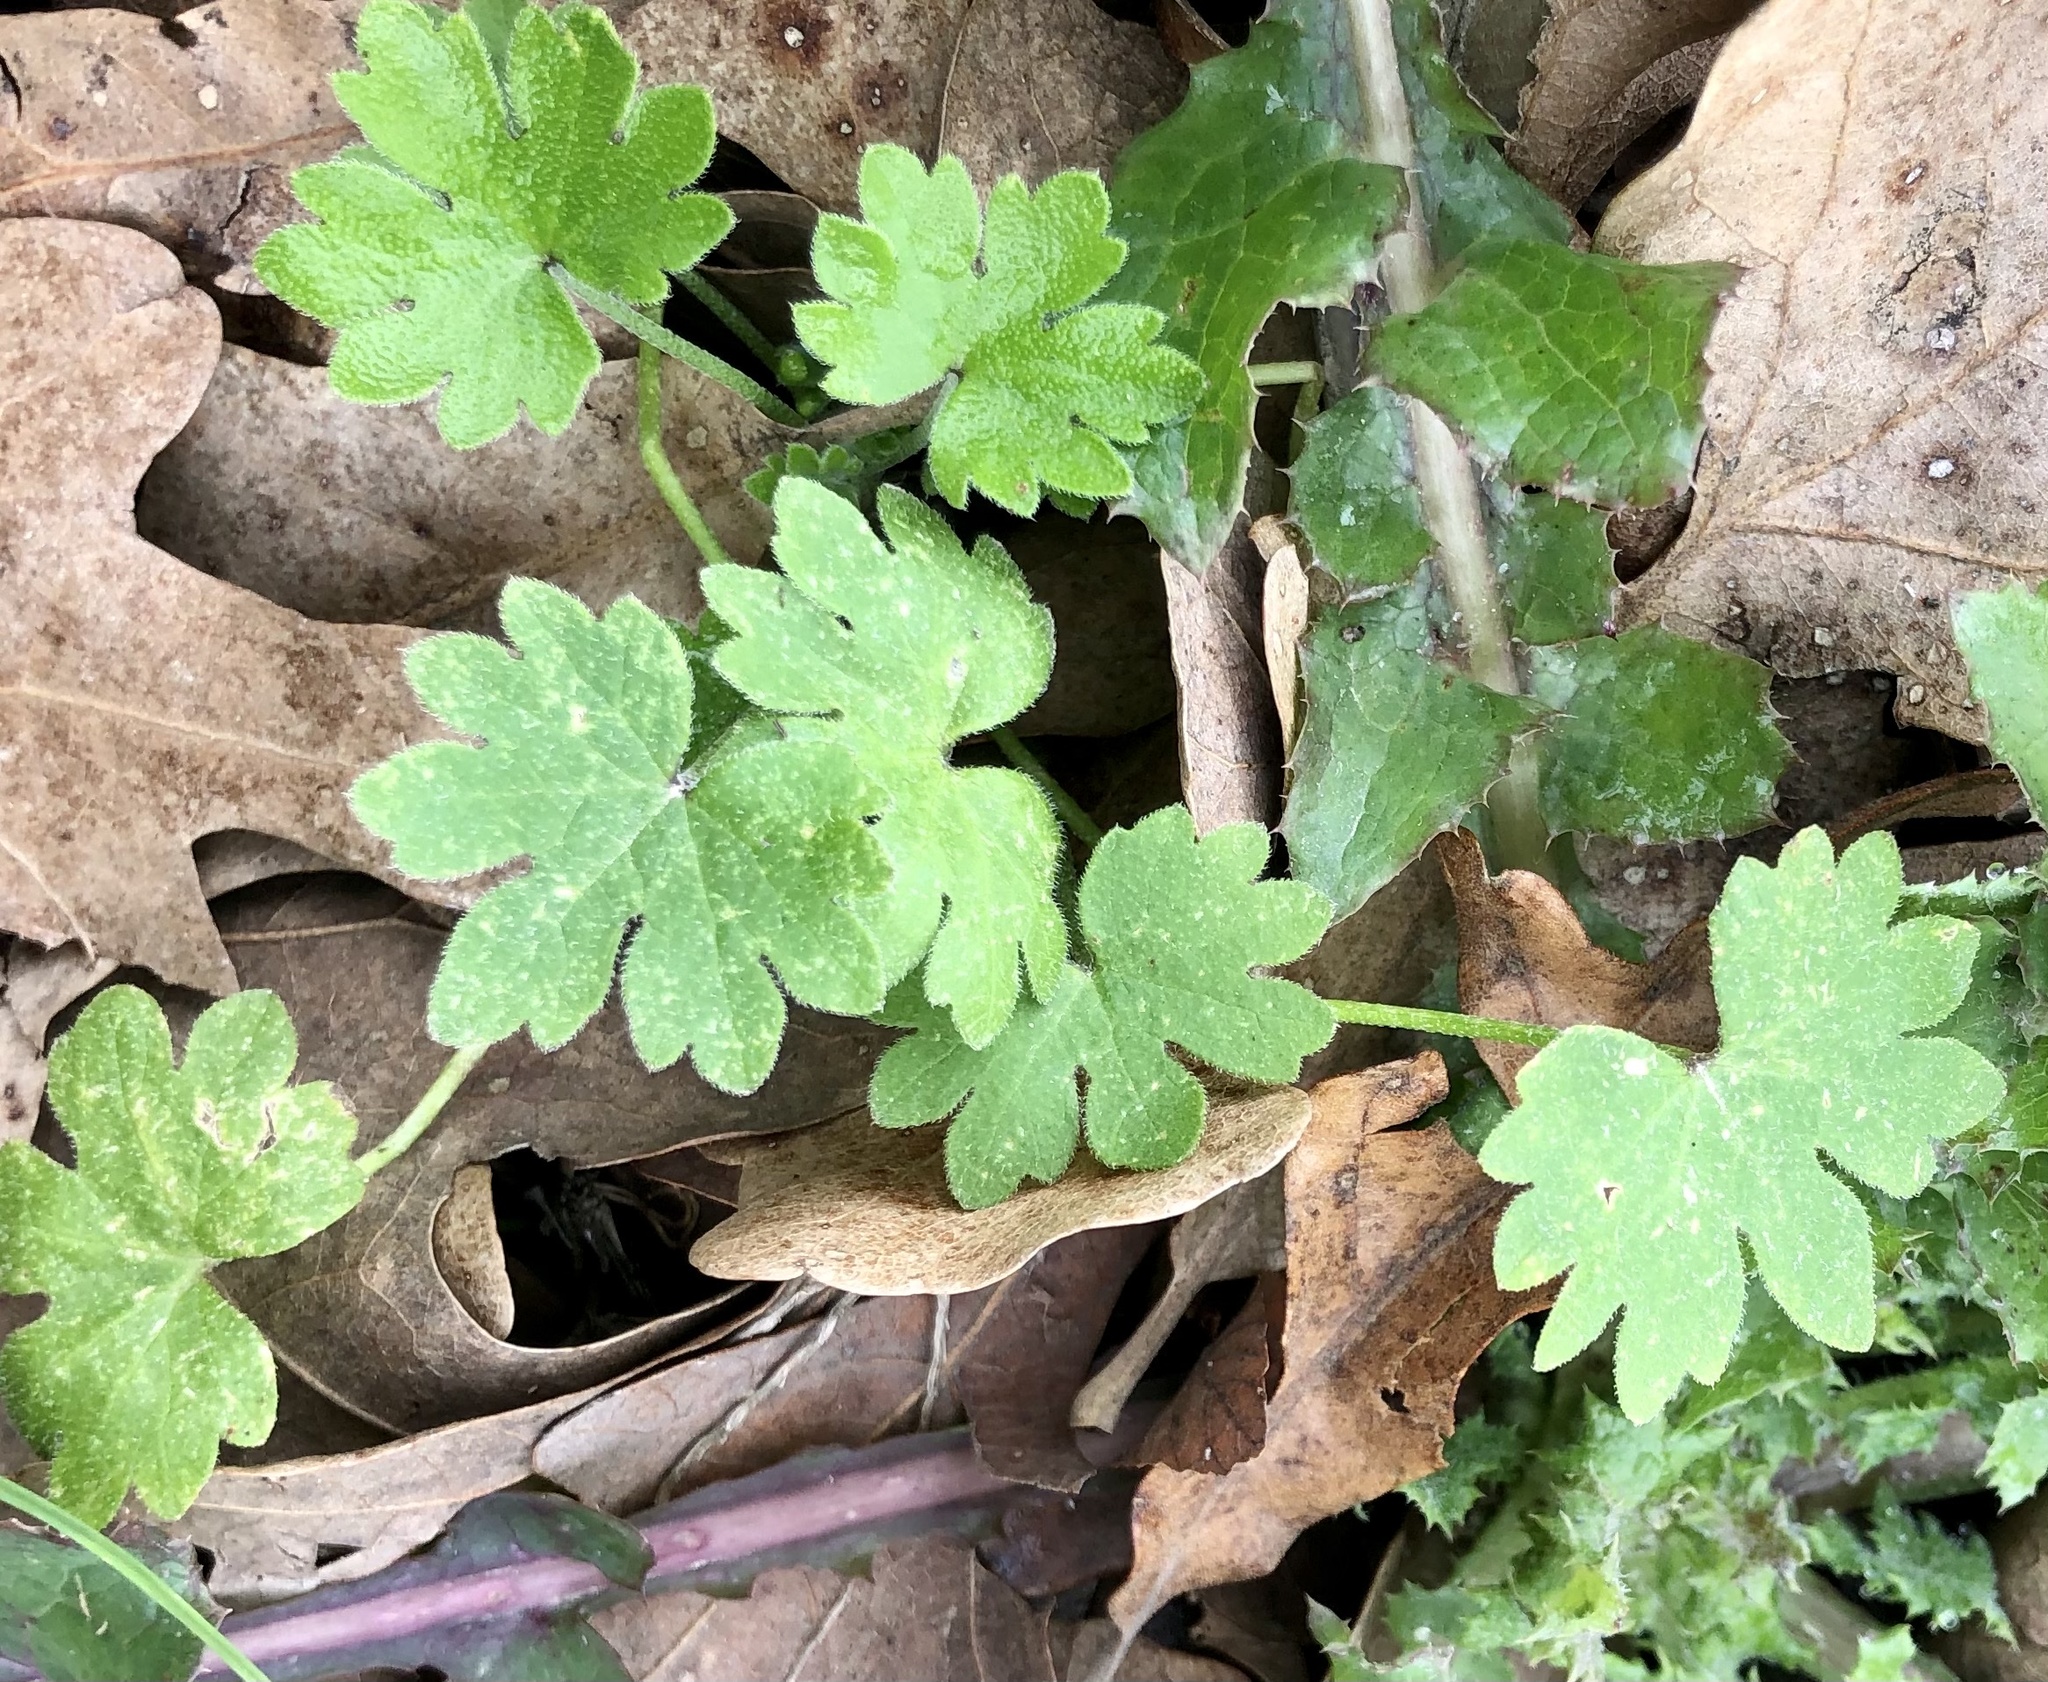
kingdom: Plantae
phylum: Tracheophyta
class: Magnoliopsida
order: Apiales
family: Apiaceae
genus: Bowlesia
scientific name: Bowlesia incana
